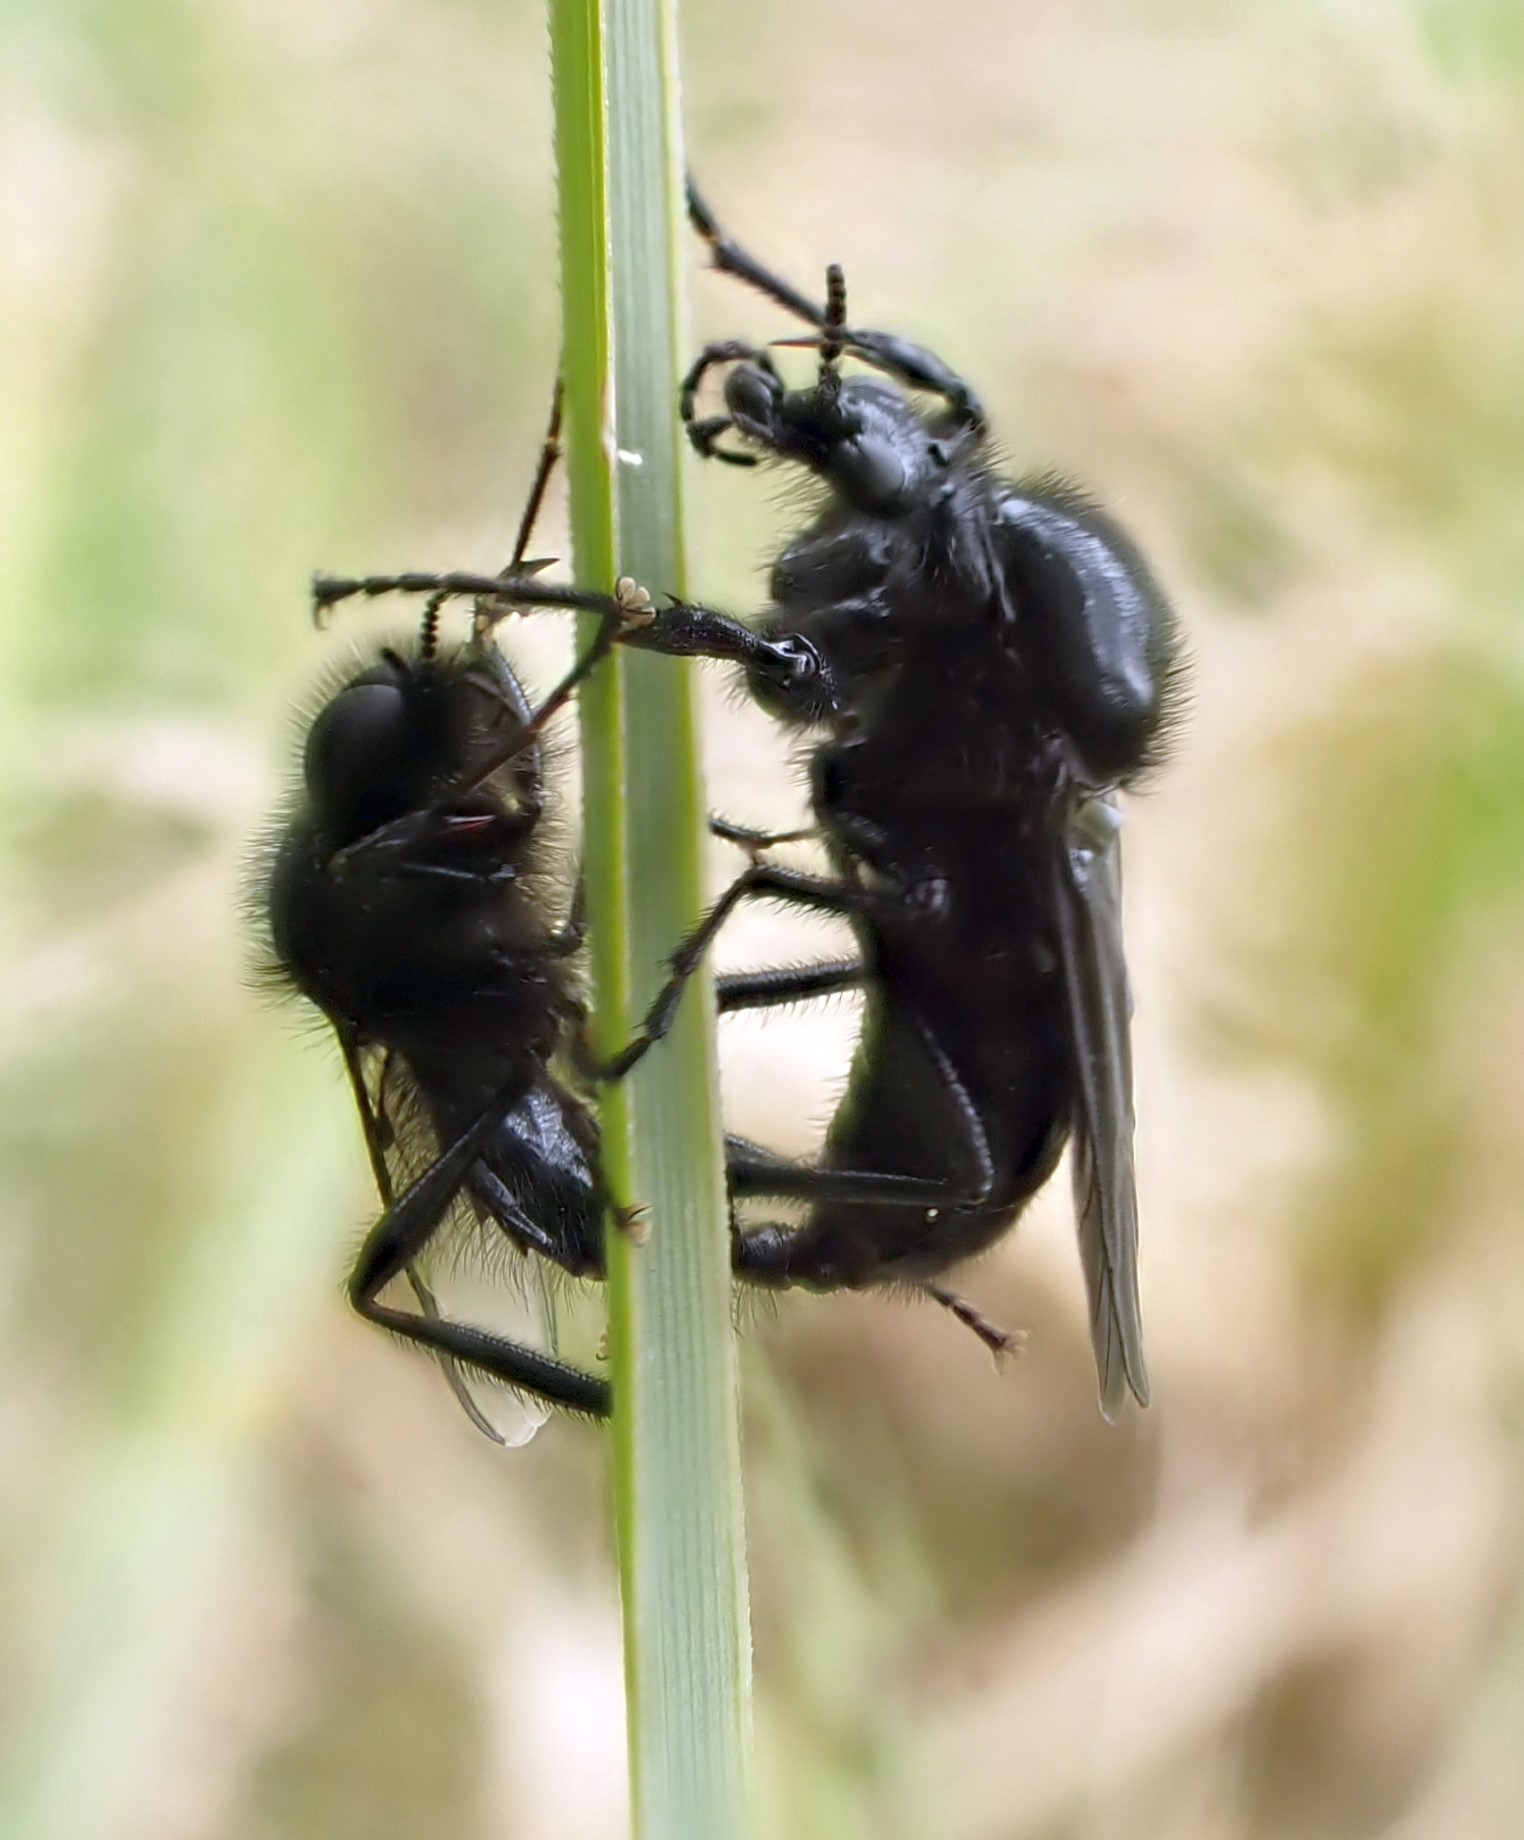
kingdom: Animalia
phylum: Arthropoda
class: Insecta
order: Diptera
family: Bibionidae
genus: Bibio
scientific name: Bibio marci
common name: St marks fly
